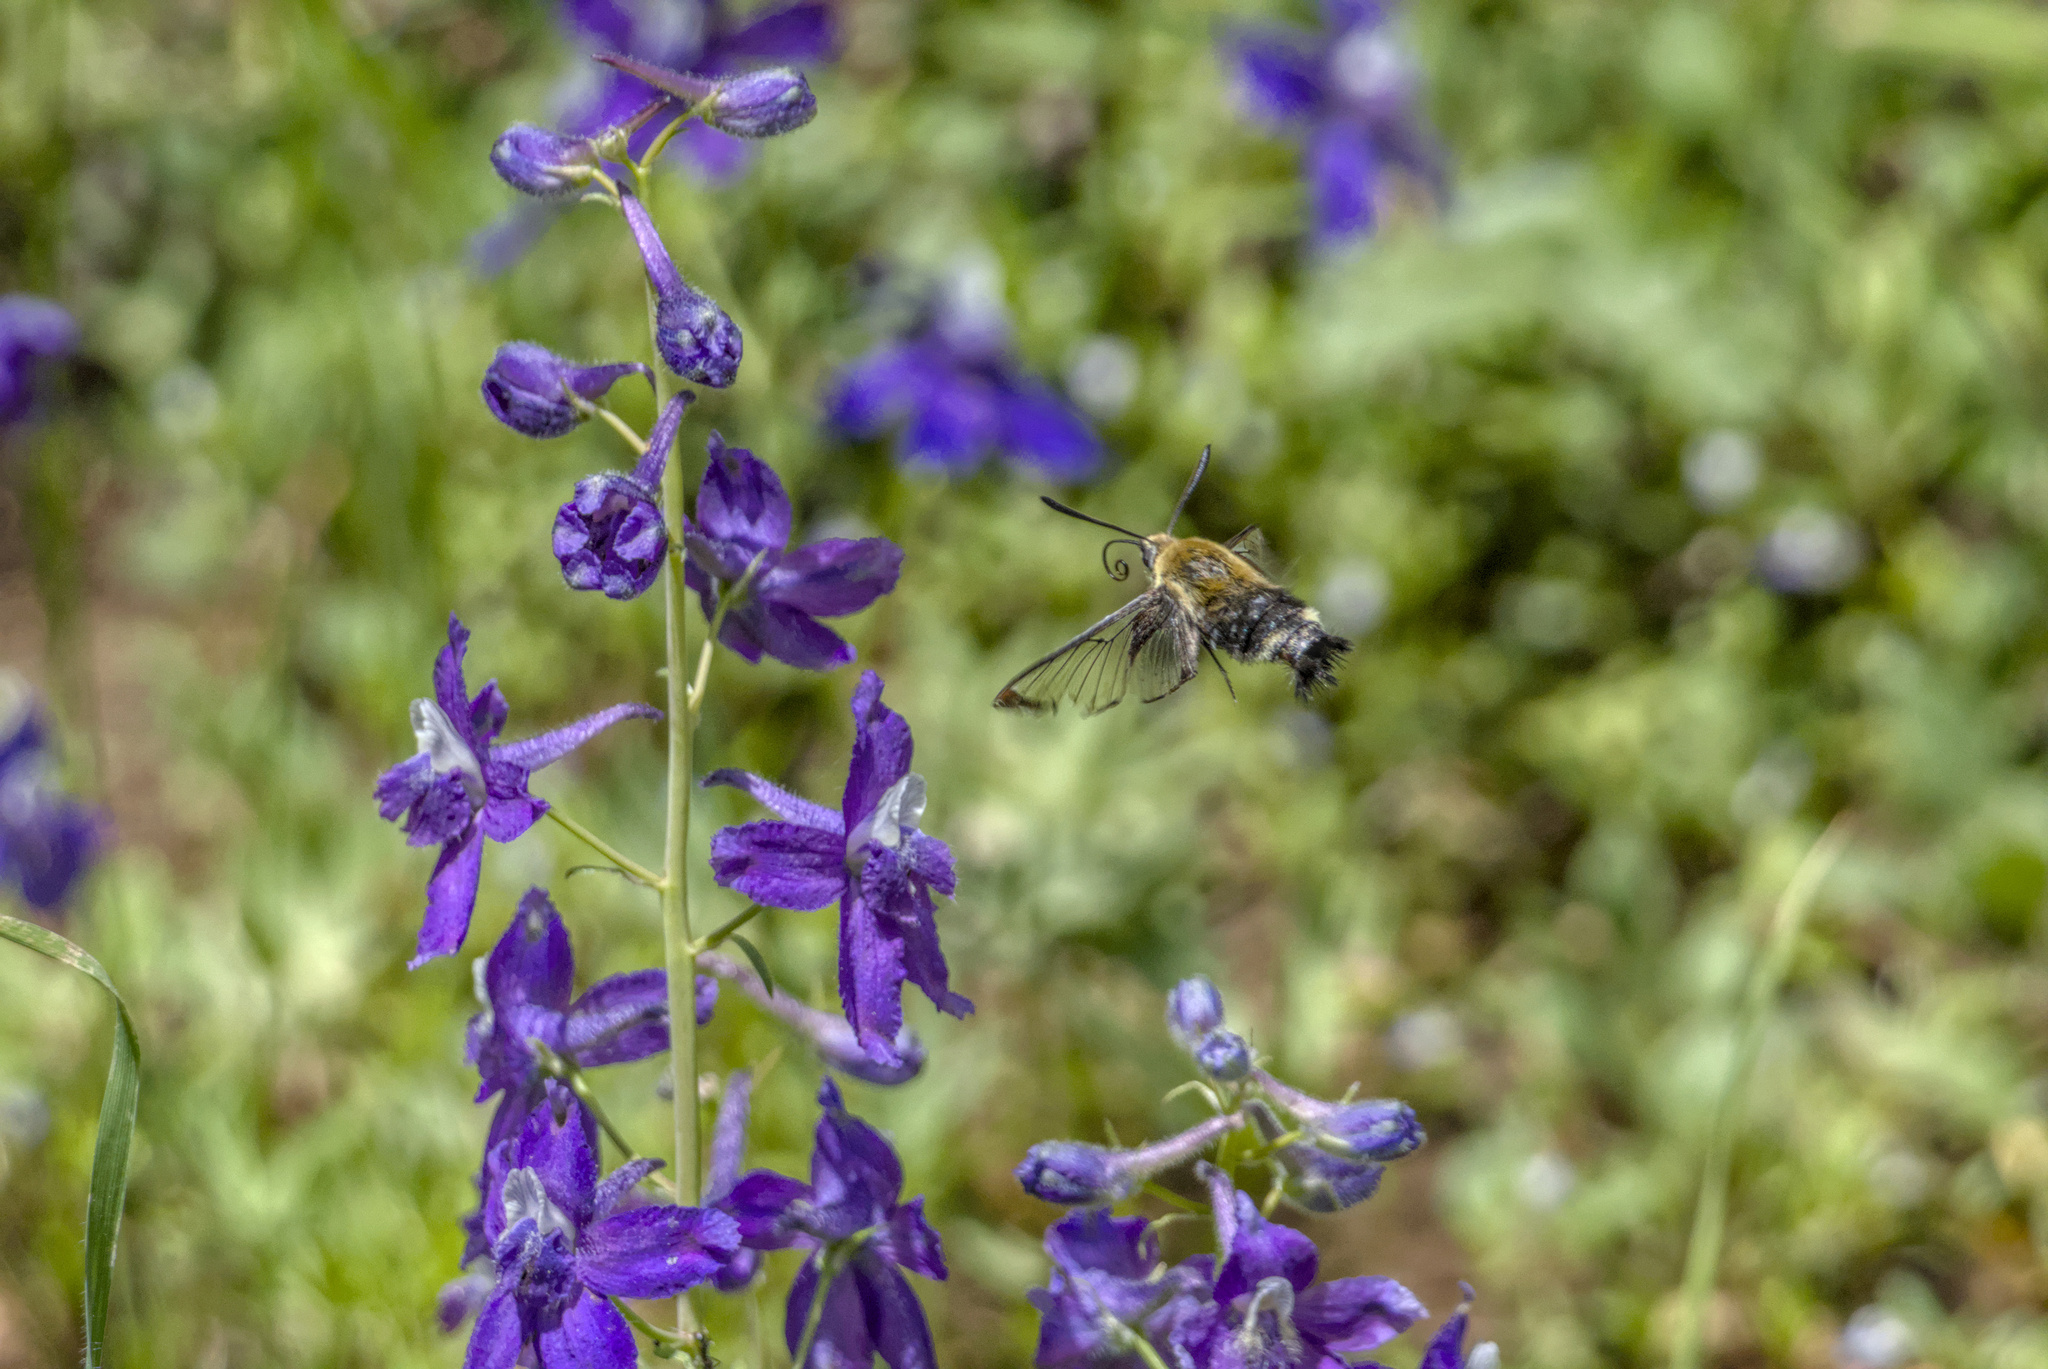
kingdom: Animalia
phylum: Arthropoda
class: Insecta
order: Lepidoptera
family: Sphingidae
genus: Hemaris
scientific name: Hemaris thetis
